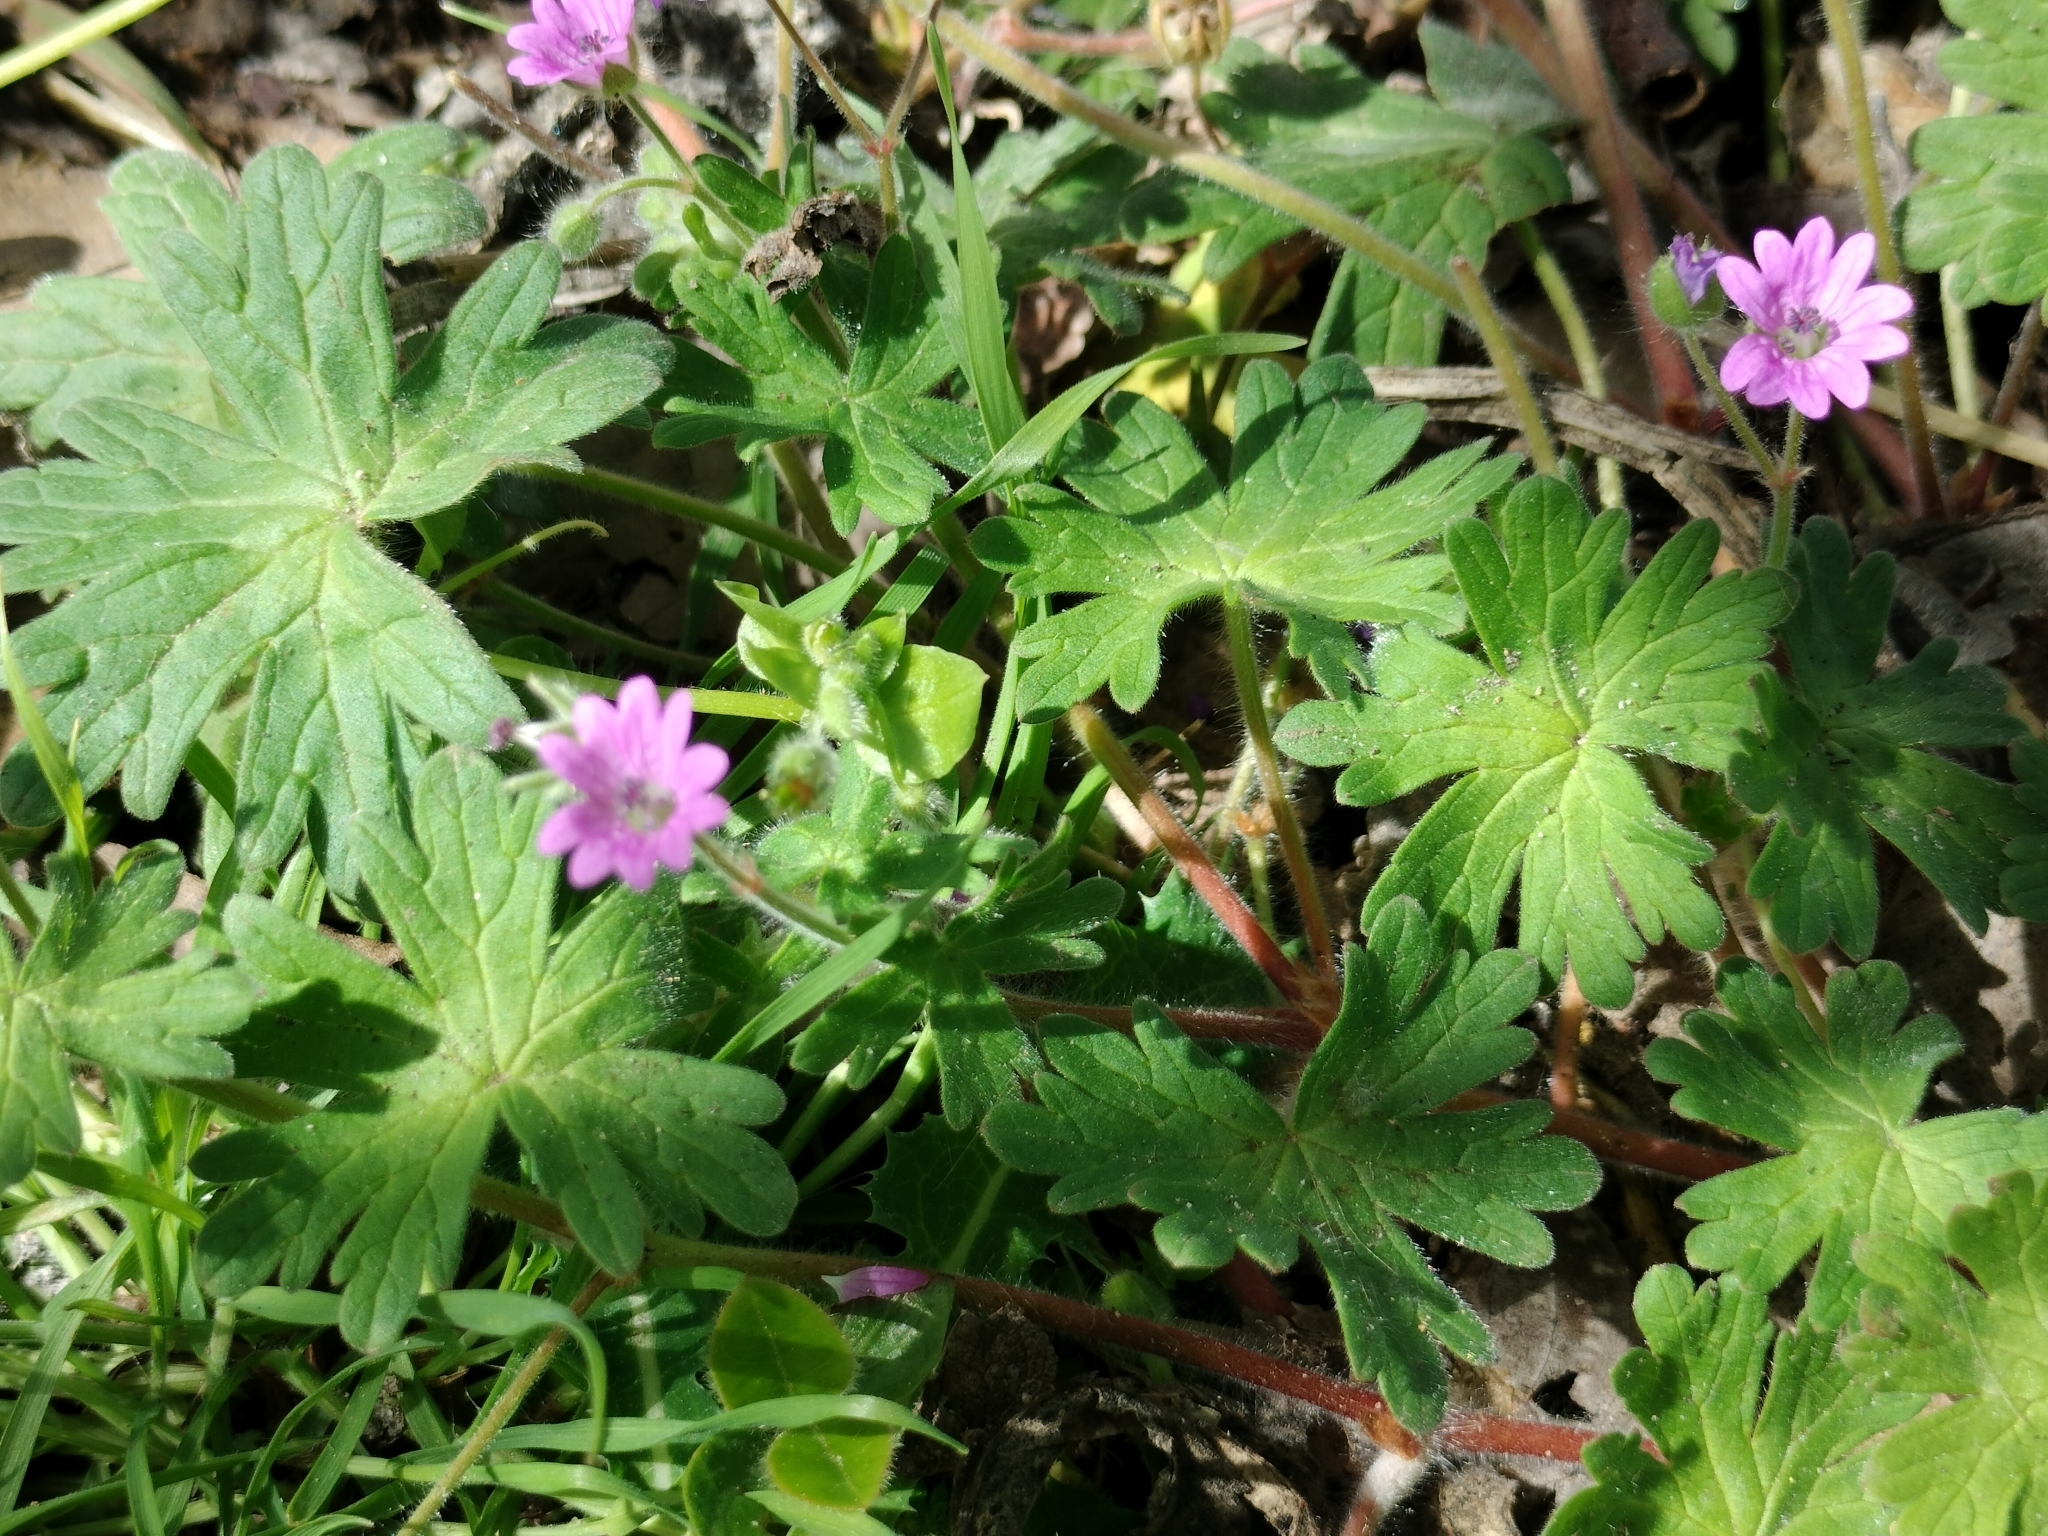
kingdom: Plantae
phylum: Tracheophyta
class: Magnoliopsida
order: Geraniales
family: Geraniaceae
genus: Geranium
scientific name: Geranium molle
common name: Dove's-foot crane's-bill
